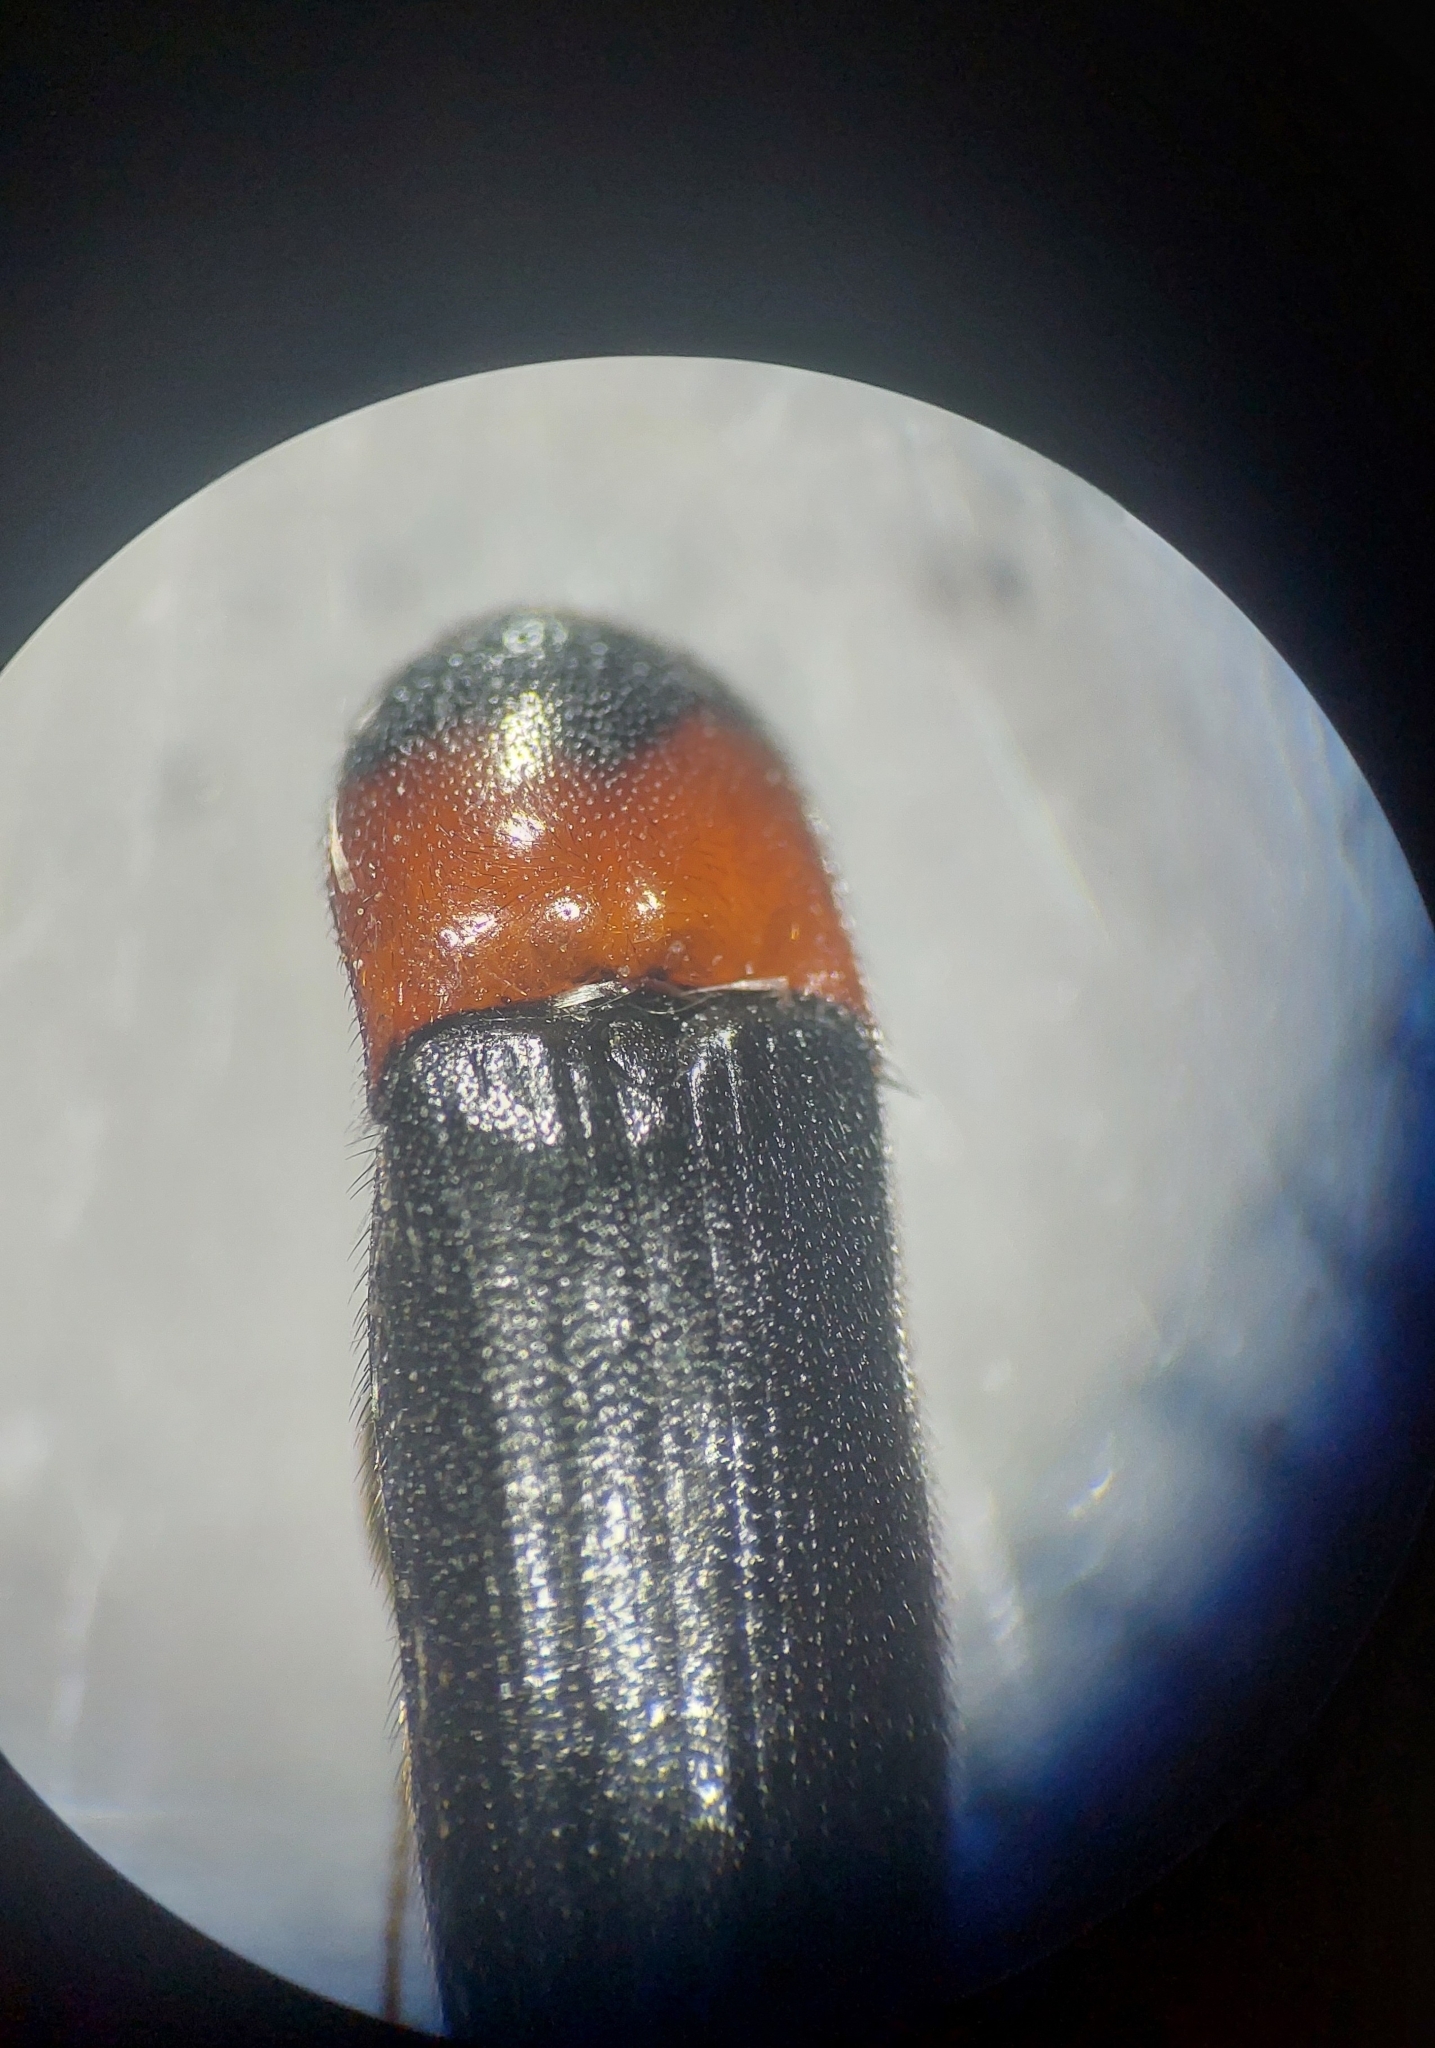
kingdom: Animalia
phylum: Arthropoda
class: Insecta
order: Coleoptera
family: Elateridae
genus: Ampedus
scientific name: Ampedus sinuatus
